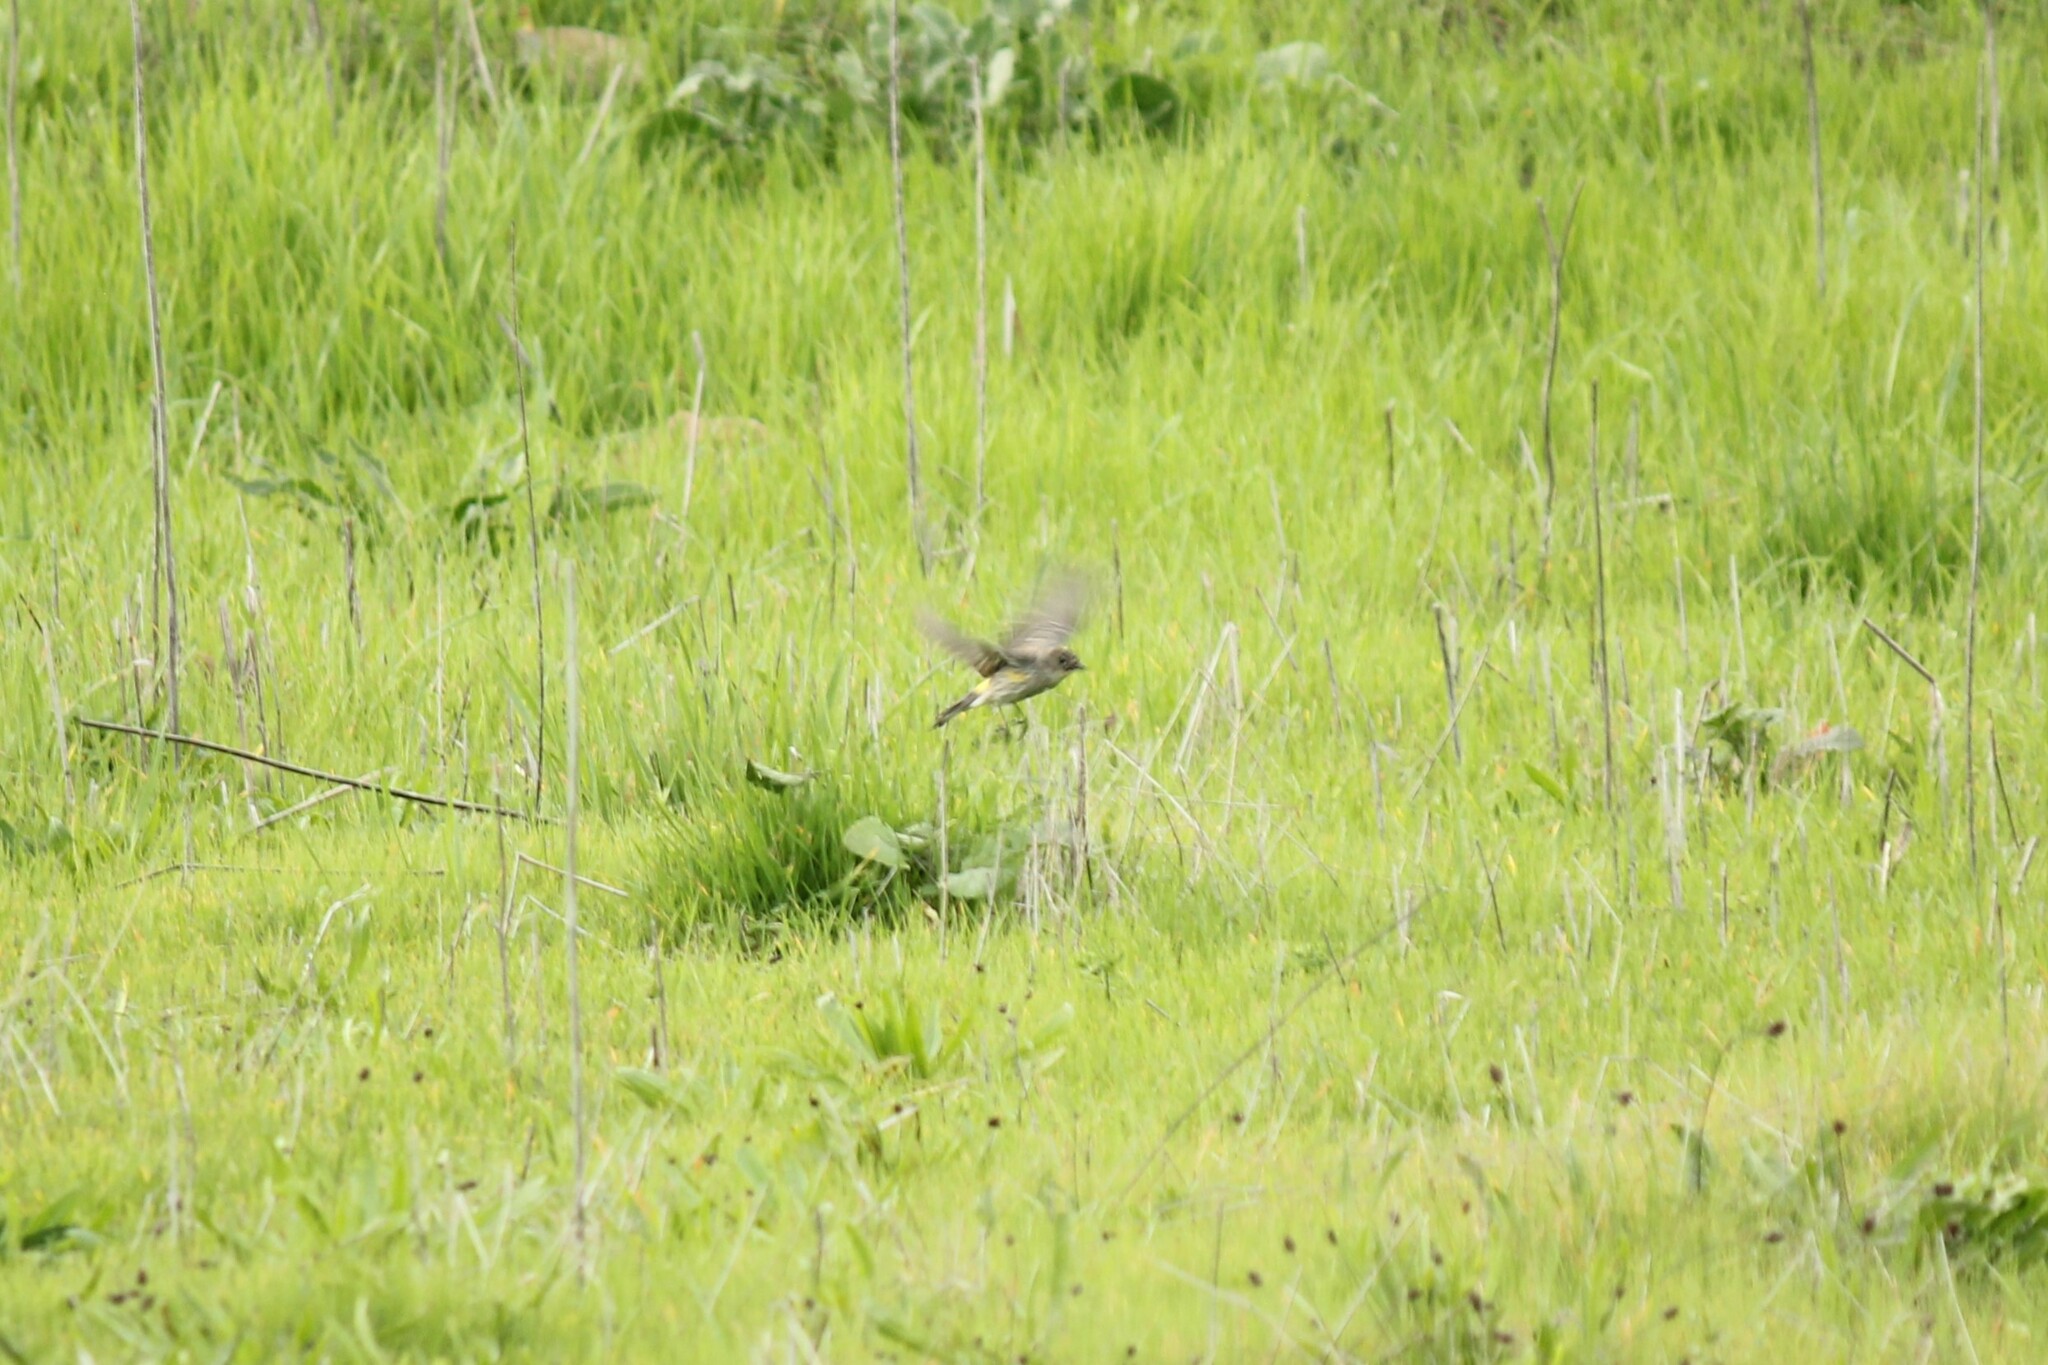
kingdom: Animalia
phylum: Chordata
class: Aves
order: Passeriformes
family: Parulidae
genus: Setophaga
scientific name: Setophaga coronata
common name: Myrtle warbler
